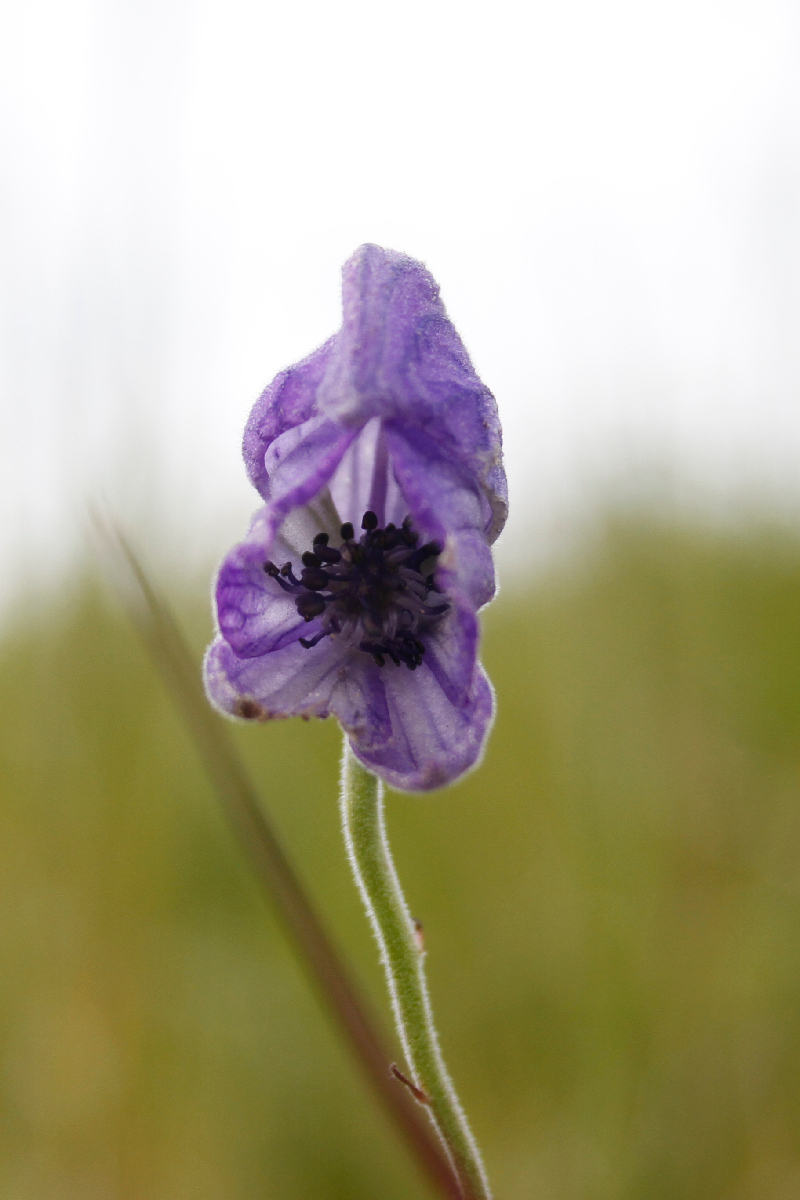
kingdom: Plantae
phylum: Tracheophyta
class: Magnoliopsida
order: Ranunculales
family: Ranunculaceae
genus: Aconitum
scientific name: Aconitum delphiniifolium
